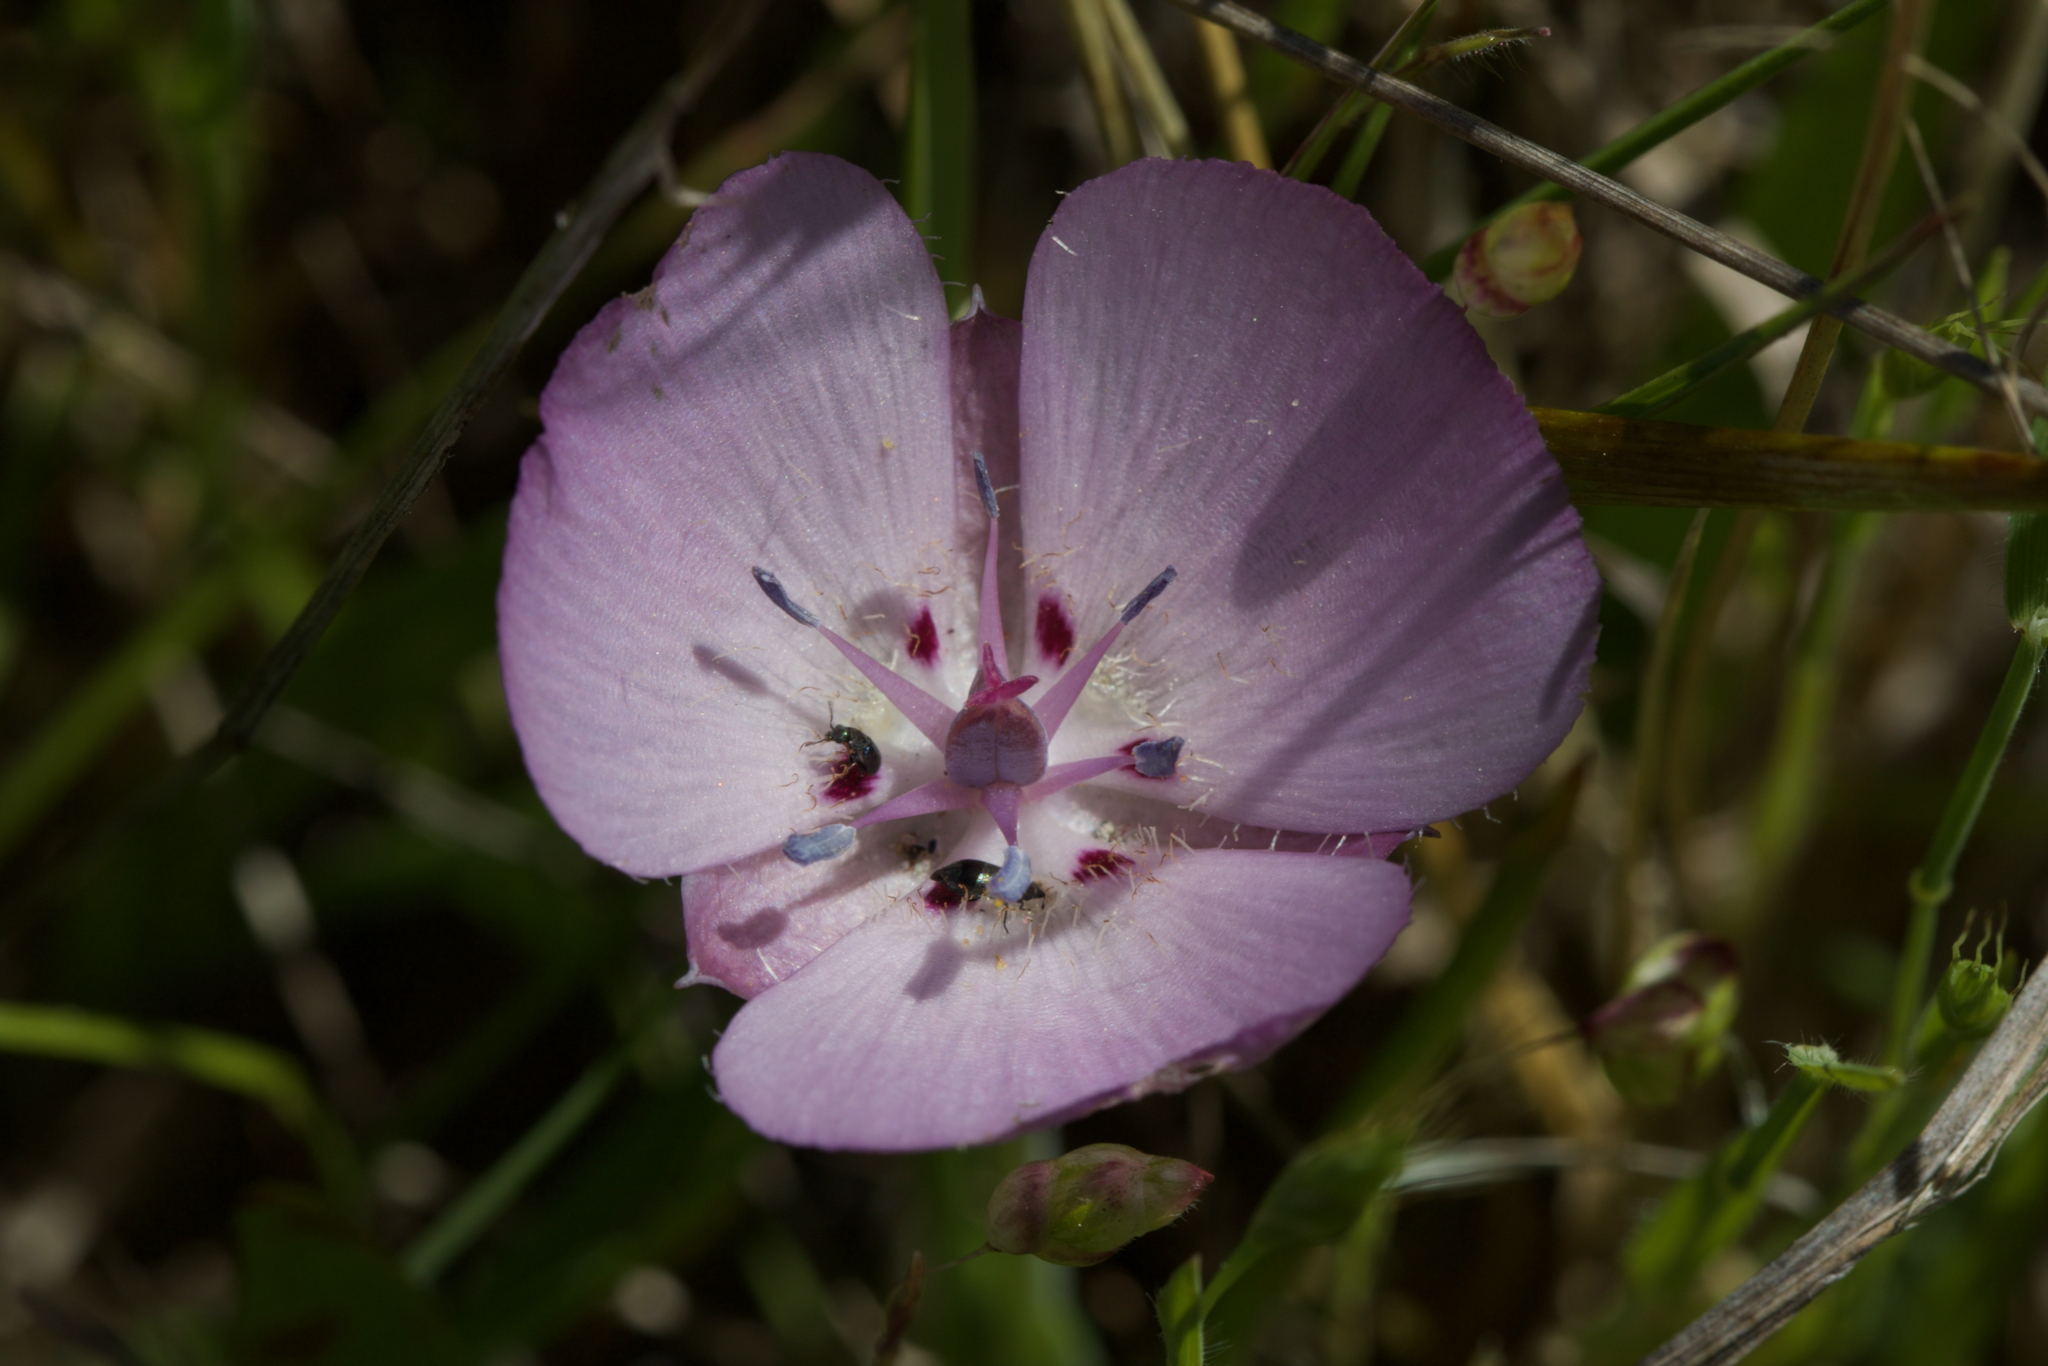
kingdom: Plantae
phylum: Tracheophyta
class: Liliopsida
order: Liliales
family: Liliaceae
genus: Calochortus
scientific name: Calochortus uniflorus
